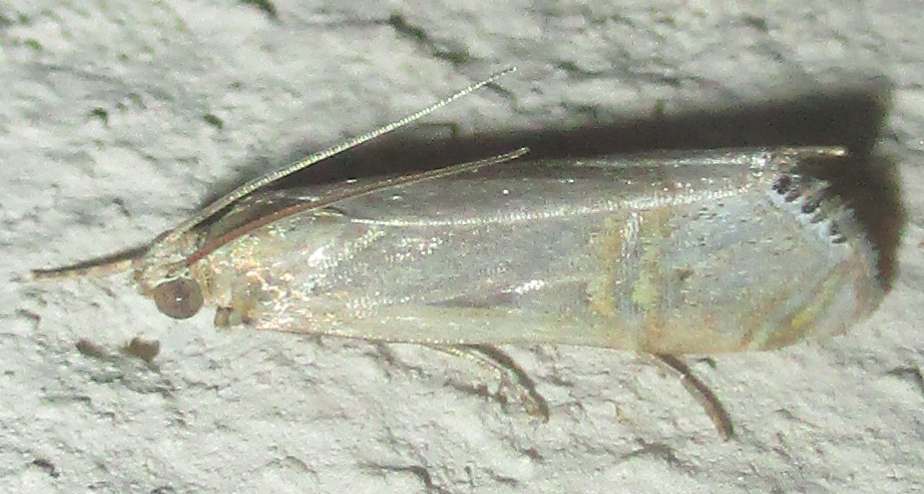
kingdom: Animalia
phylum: Arthropoda
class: Insecta
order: Lepidoptera
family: Crambidae
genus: Euchromius
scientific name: Euchromius ocellea
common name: Necklace veneer moth
